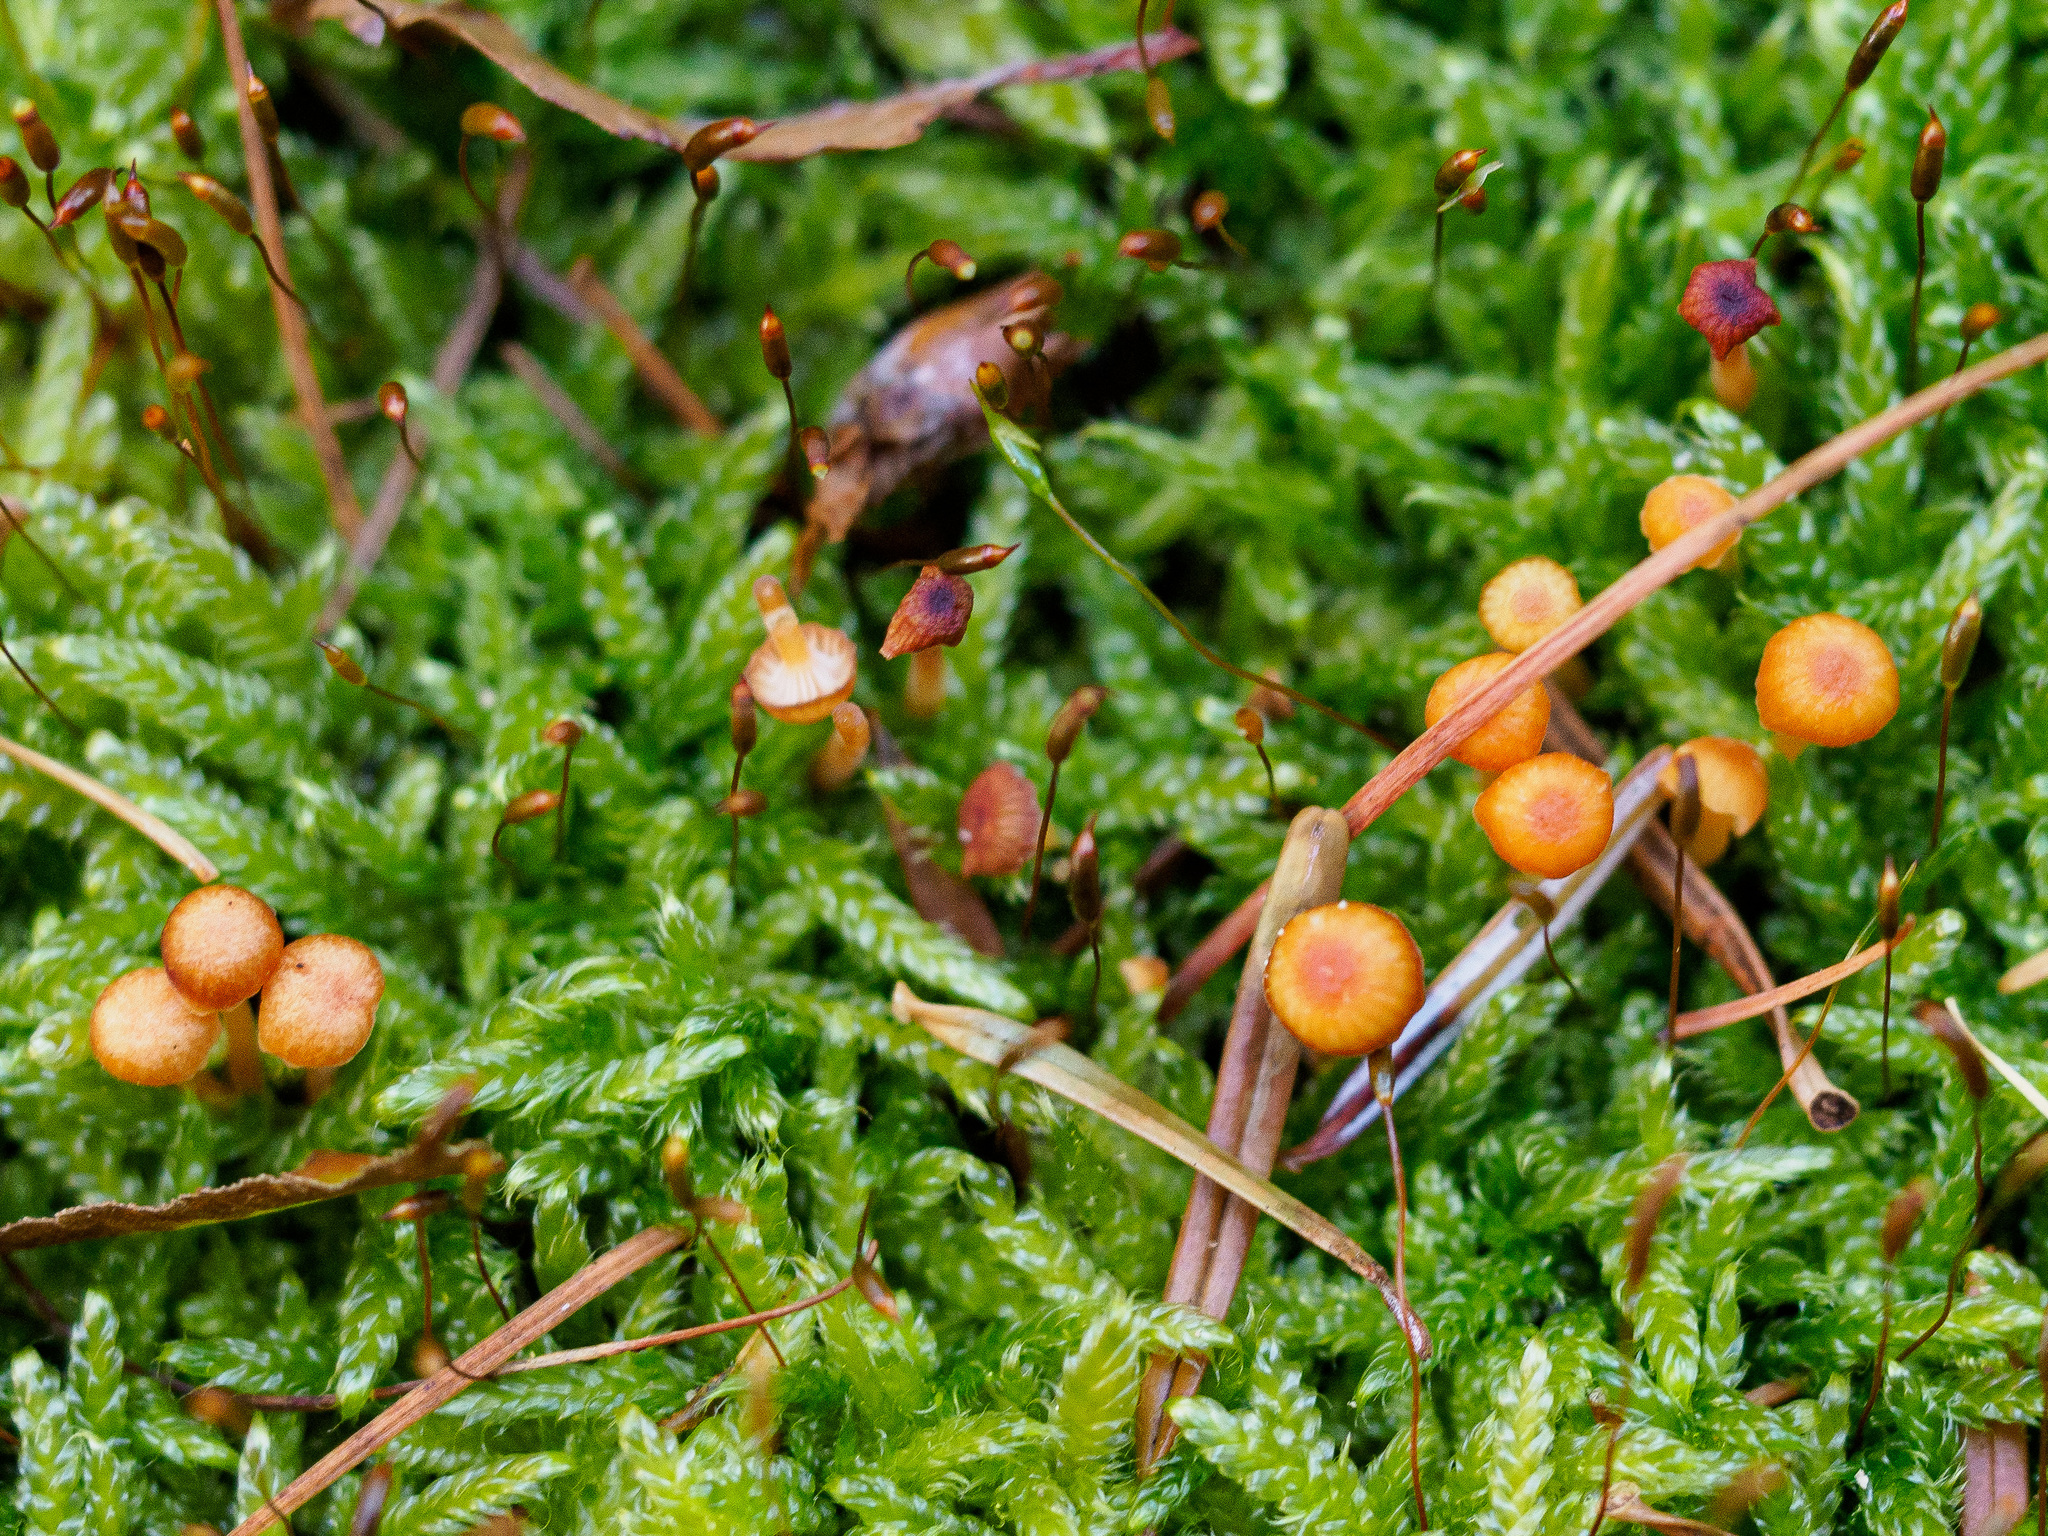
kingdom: Fungi
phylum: Basidiomycota
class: Agaricomycetes
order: Hymenochaetales
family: Rickenellaceae
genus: Rickenella
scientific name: Rickenella fibula
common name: Orange mosscap
